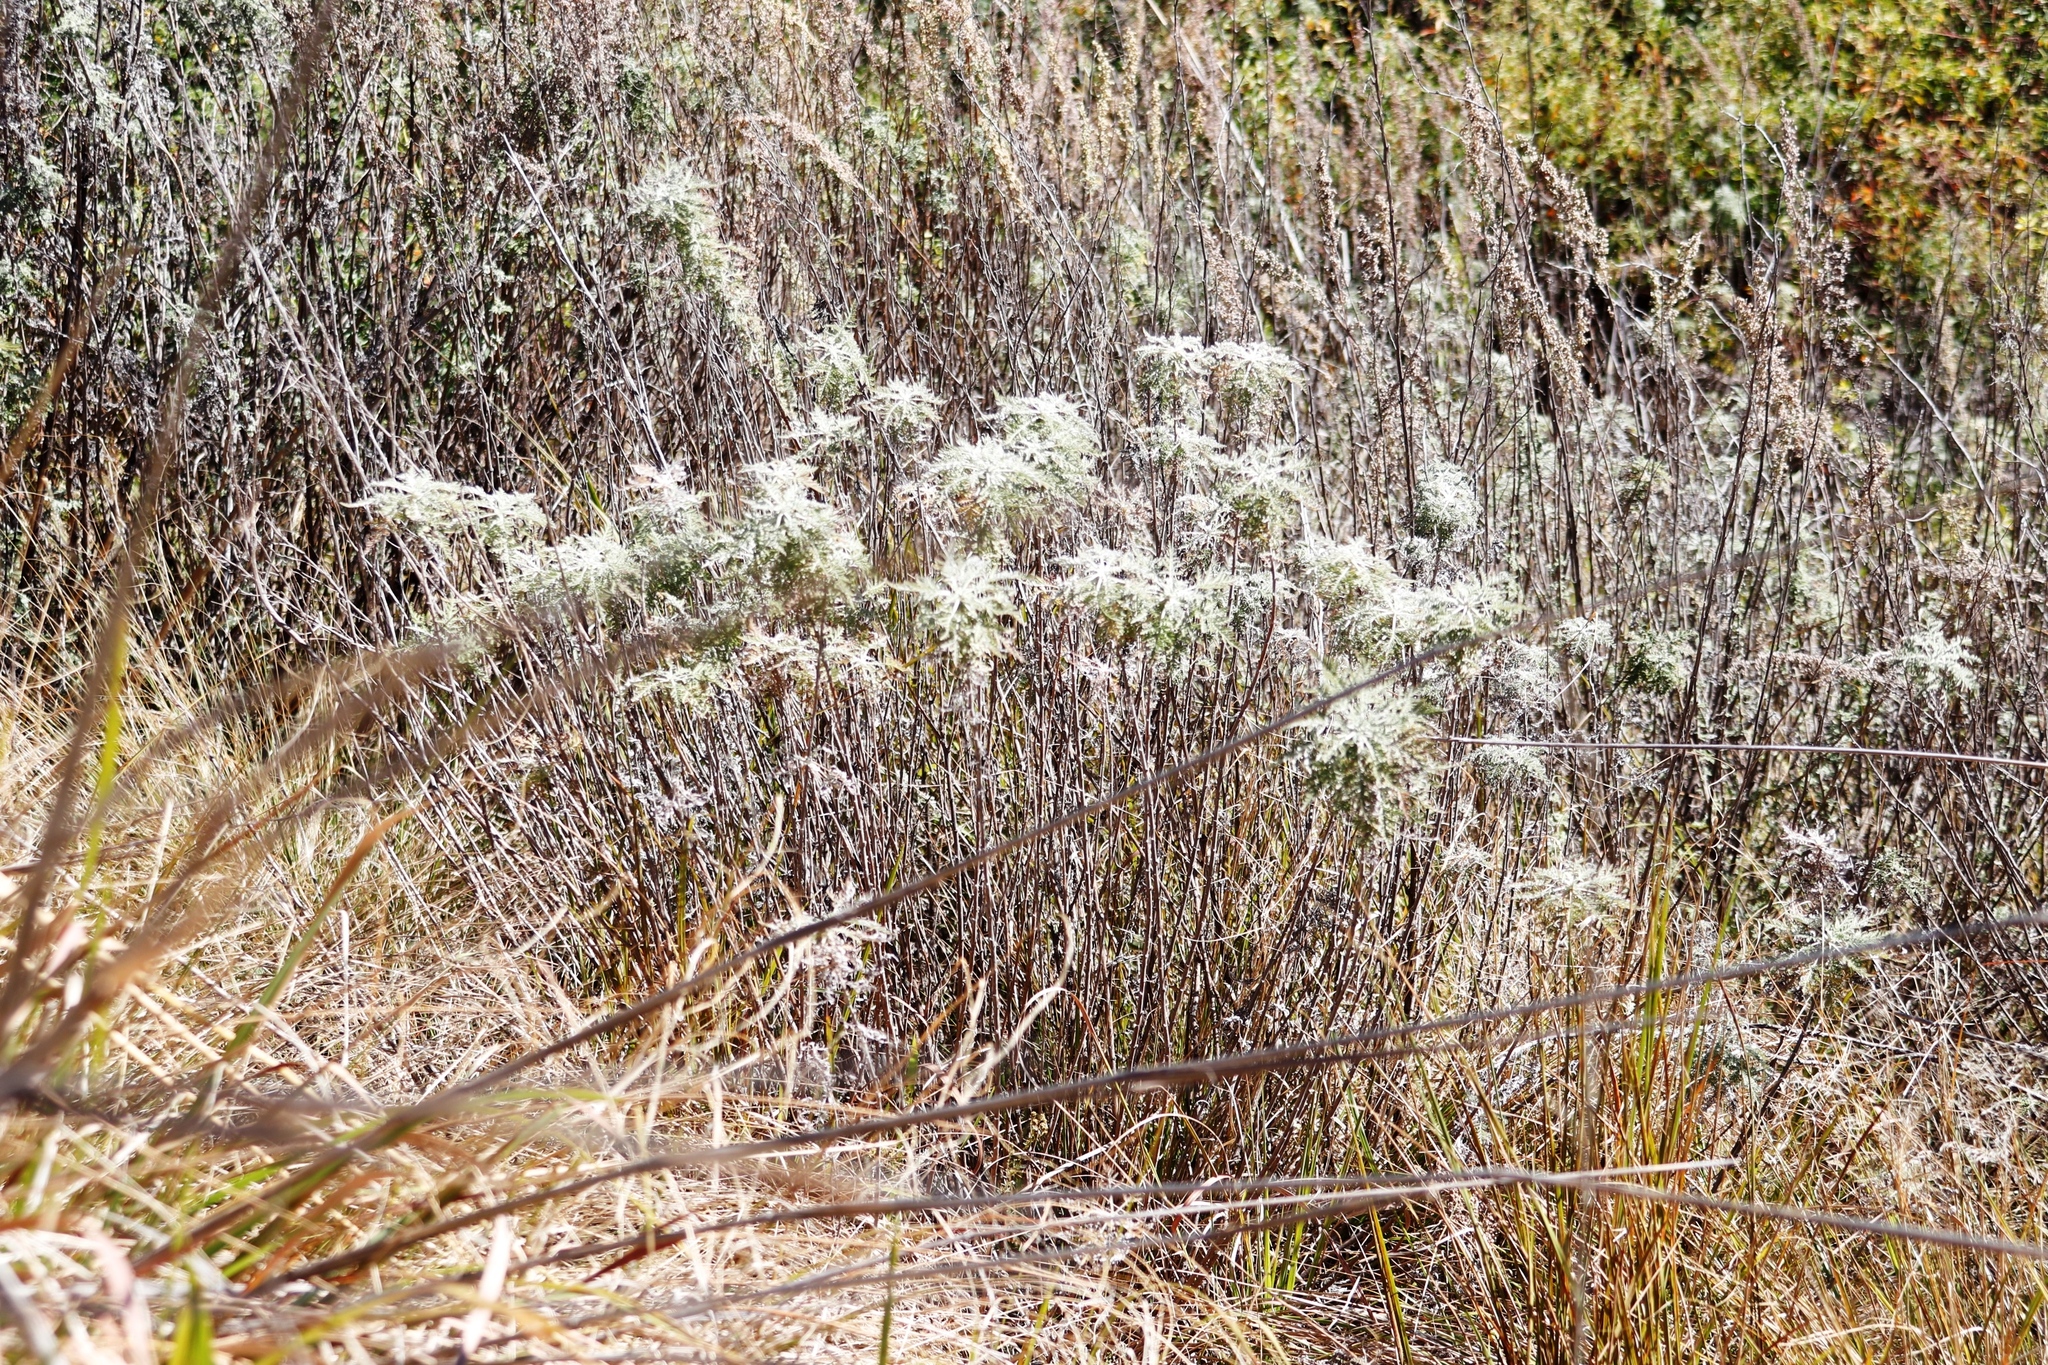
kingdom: Plantae
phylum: Tracheophyta
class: Magnoliopsida
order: Asterales
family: Asteraceae
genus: Artemisia
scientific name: Artemisia afra
